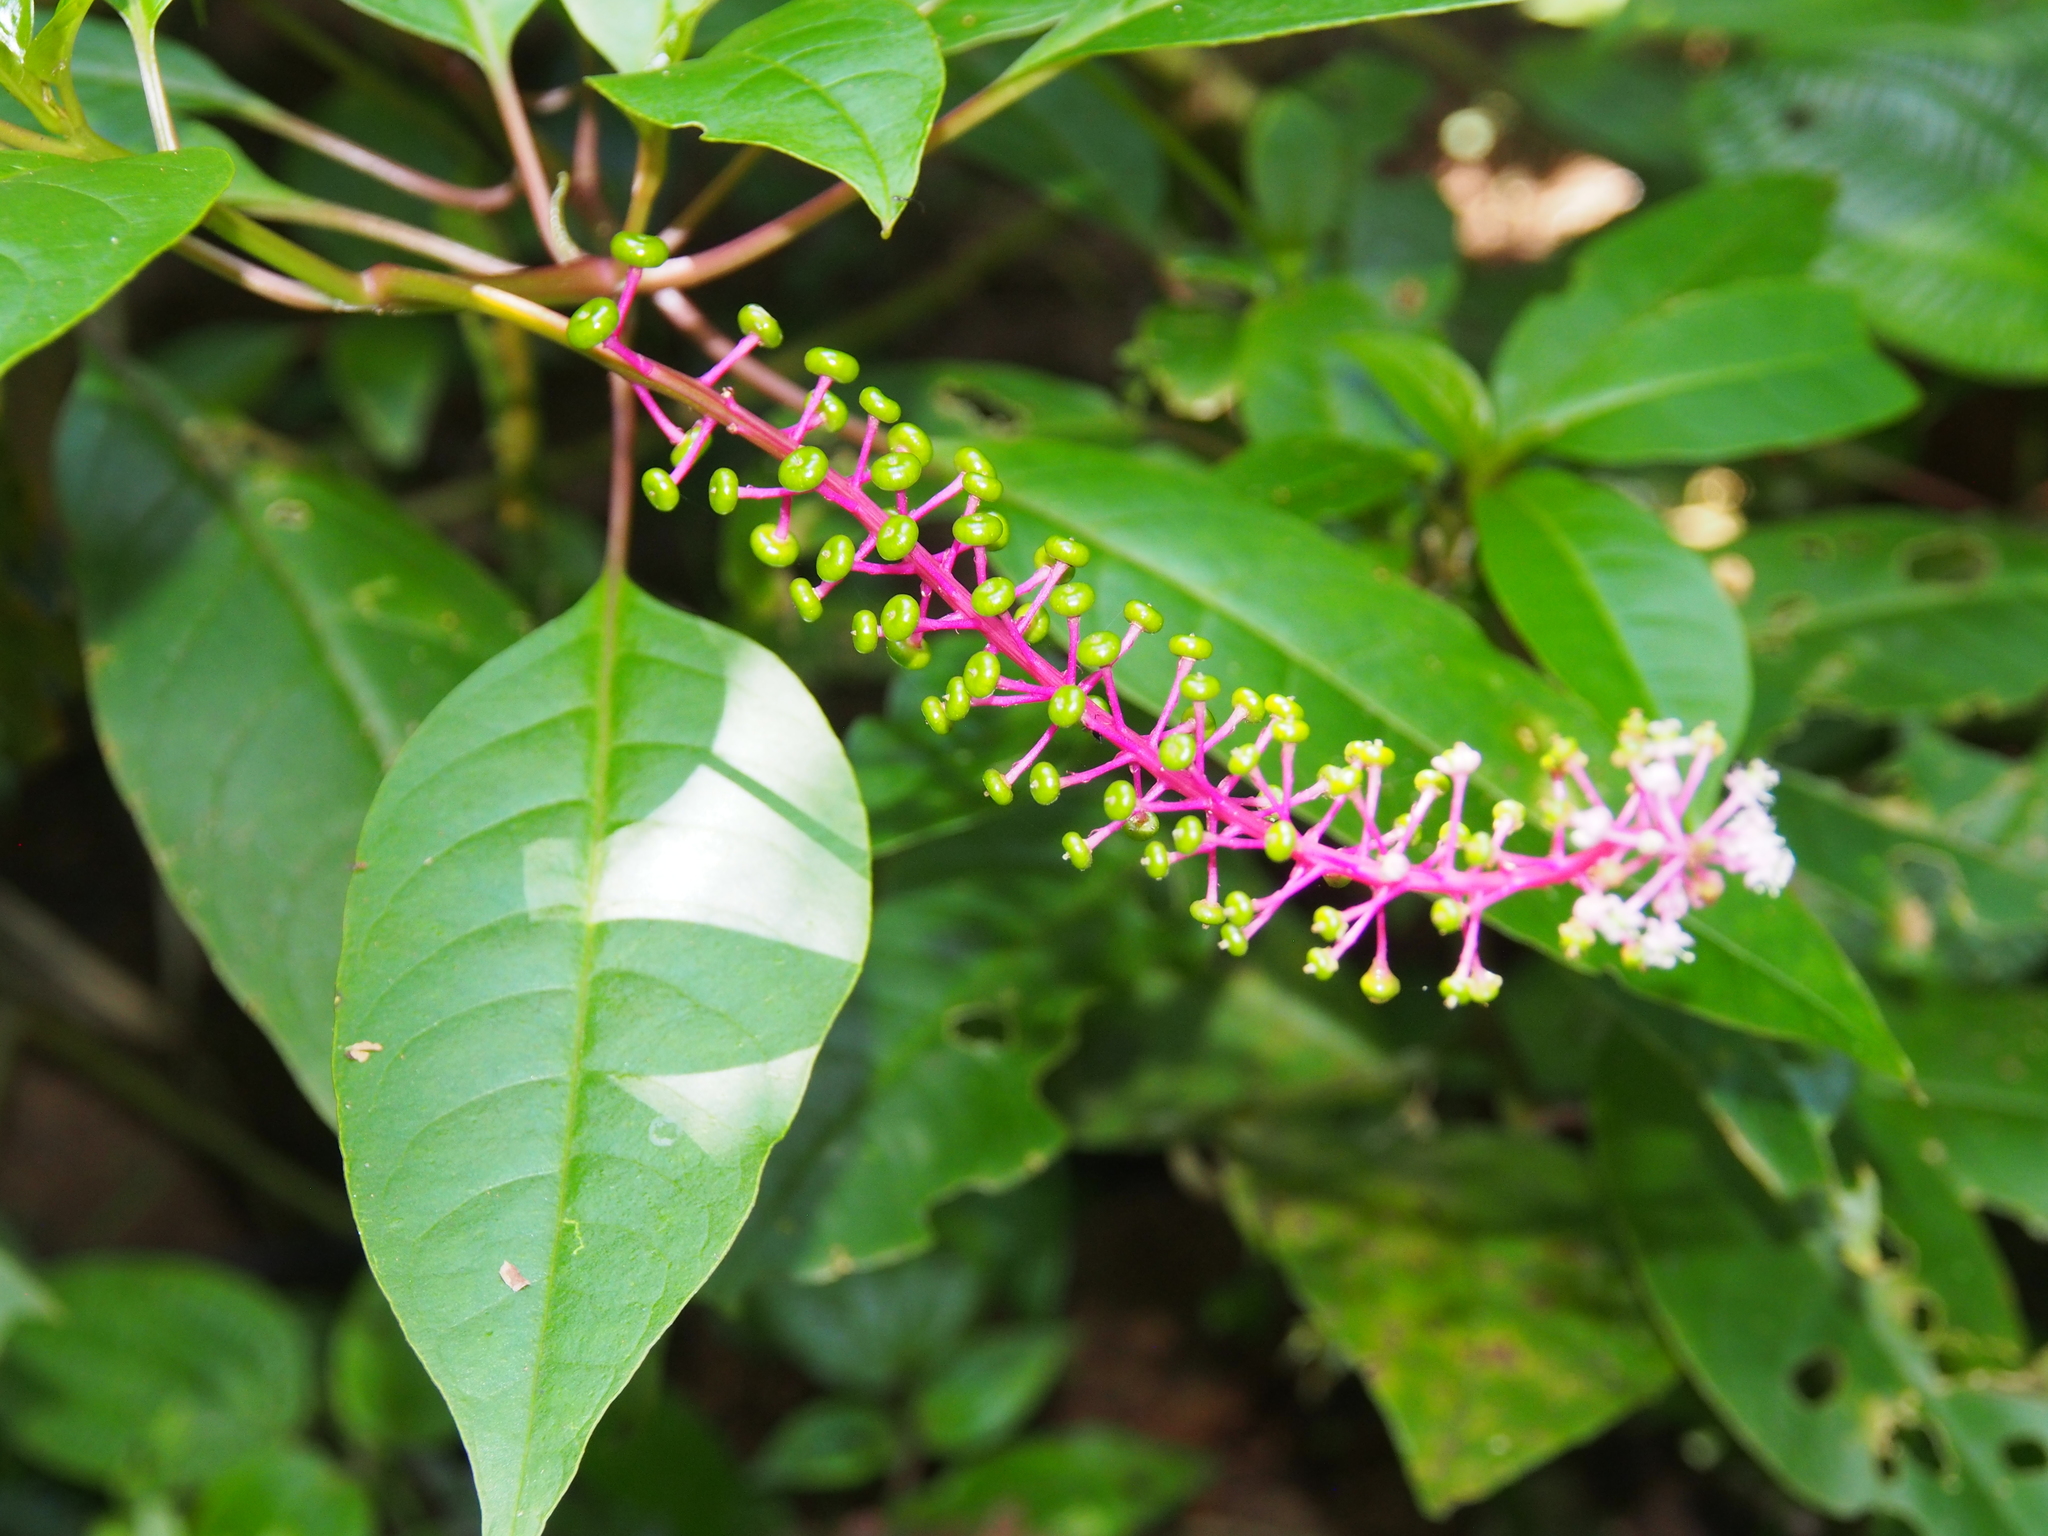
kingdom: Plantae
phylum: Tracheophyta
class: Magnoliopsida
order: Caryophyllales
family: Phytolaccaceae
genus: Phytolacca
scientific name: Phytolacca rivinoides
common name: Venezuelan pokeweed
